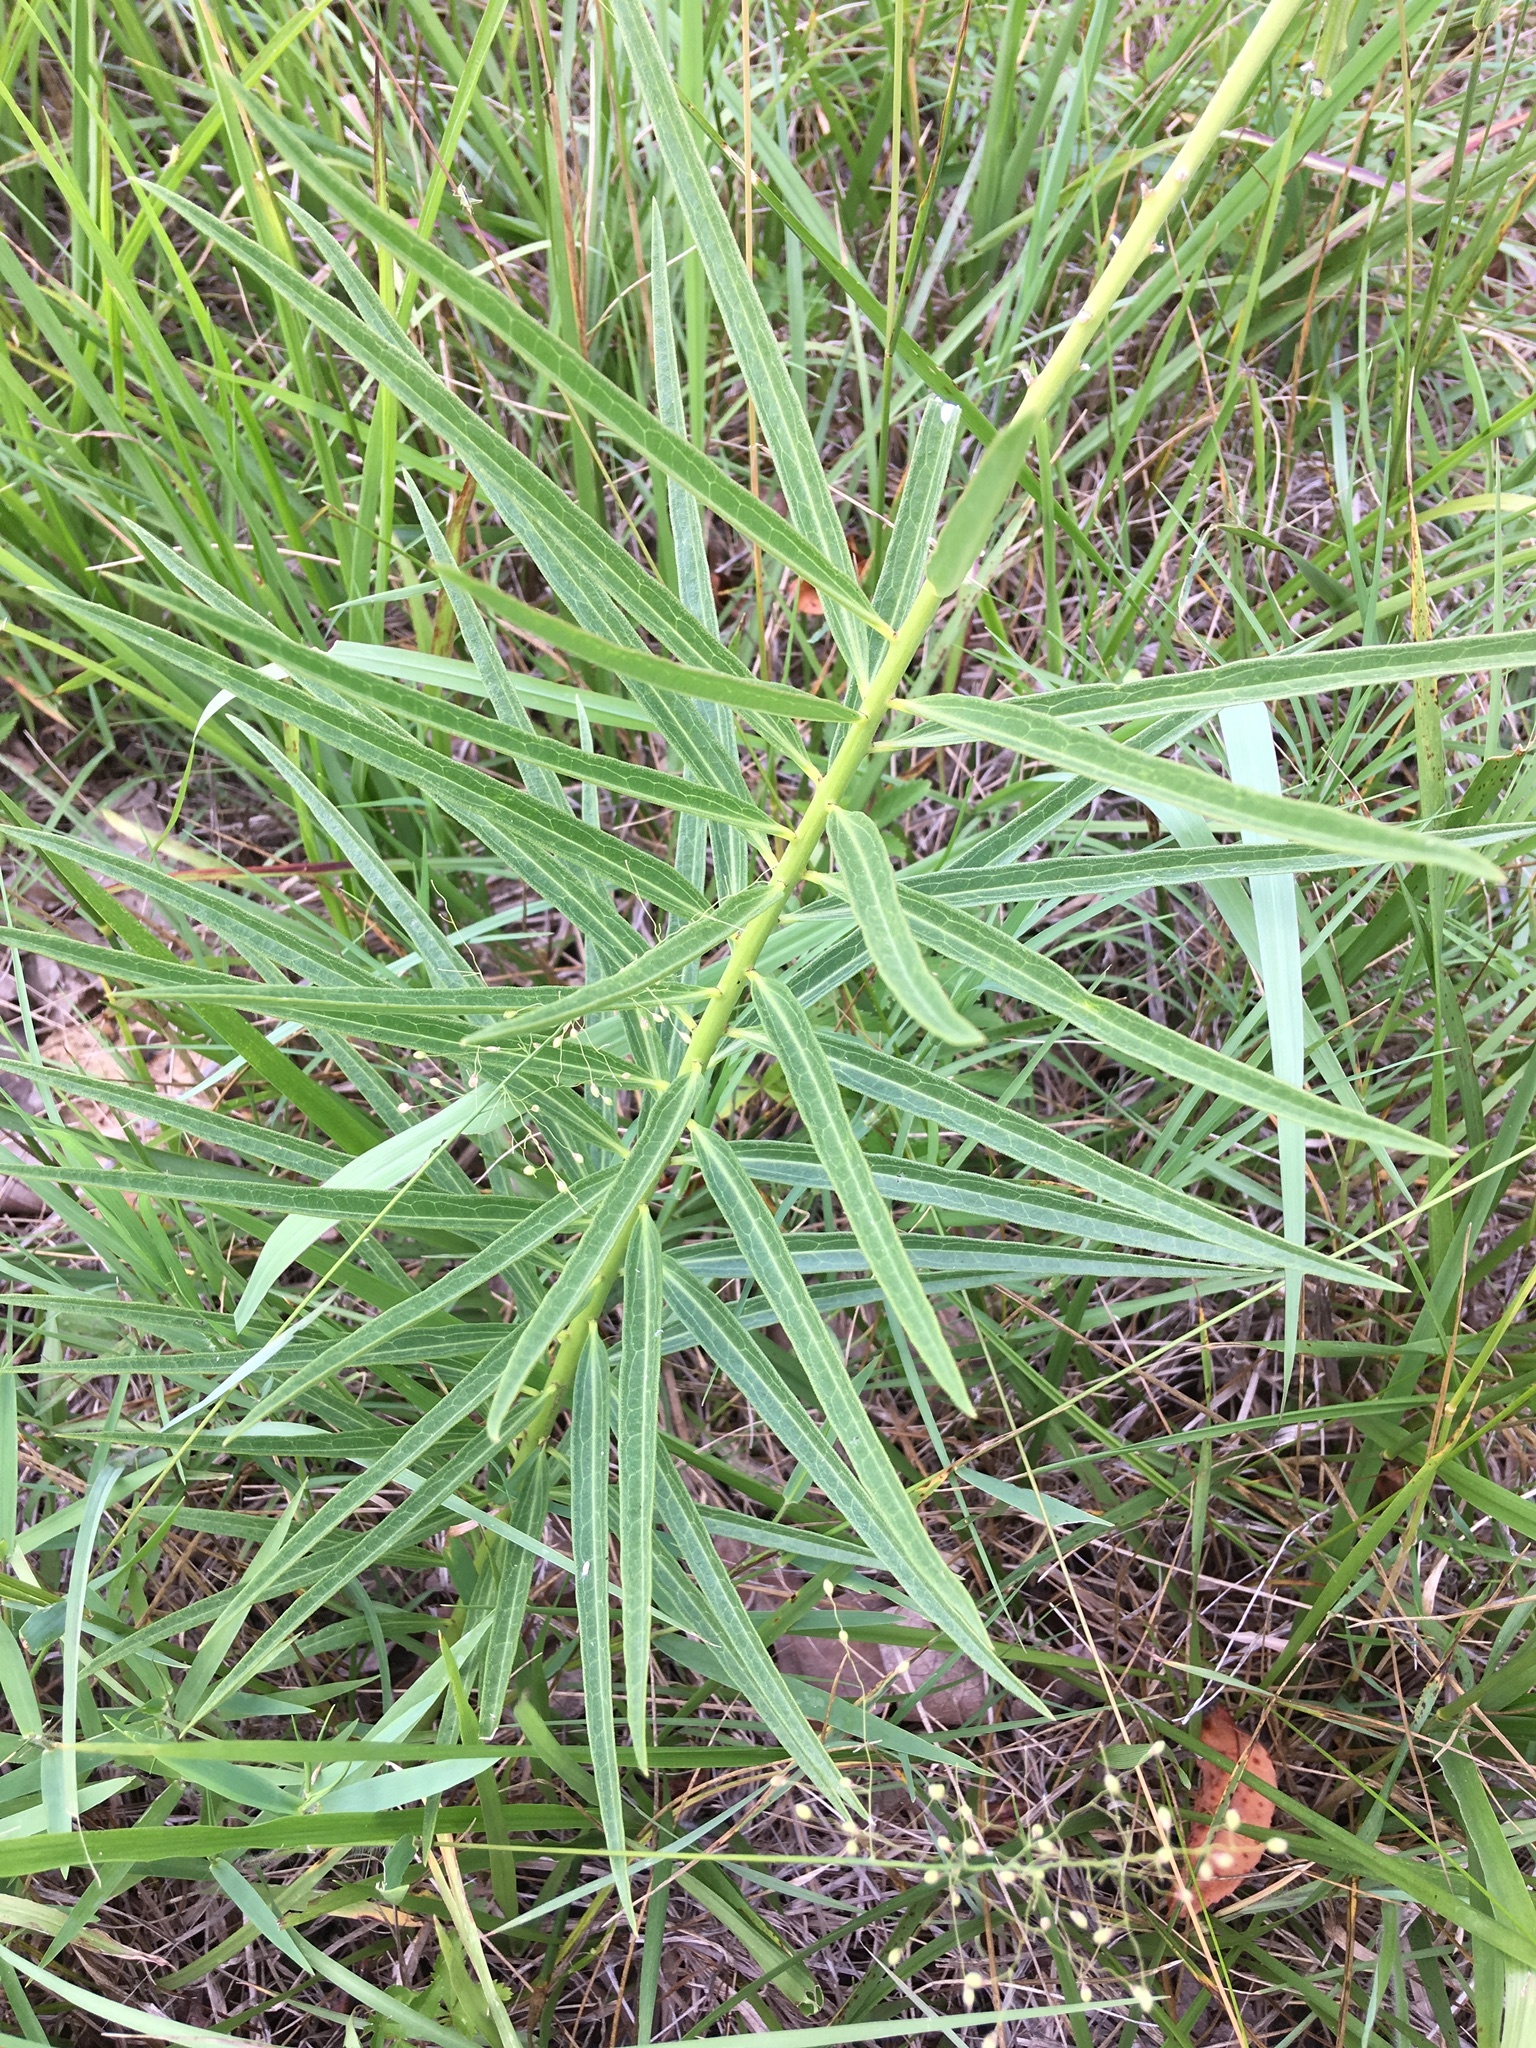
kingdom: Plantae
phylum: Tracheophyta
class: Magnoliopsida
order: Gentianales
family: Apocynaceae
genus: Asclepias
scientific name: Asclepias hirtella
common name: Prairie milkweed
